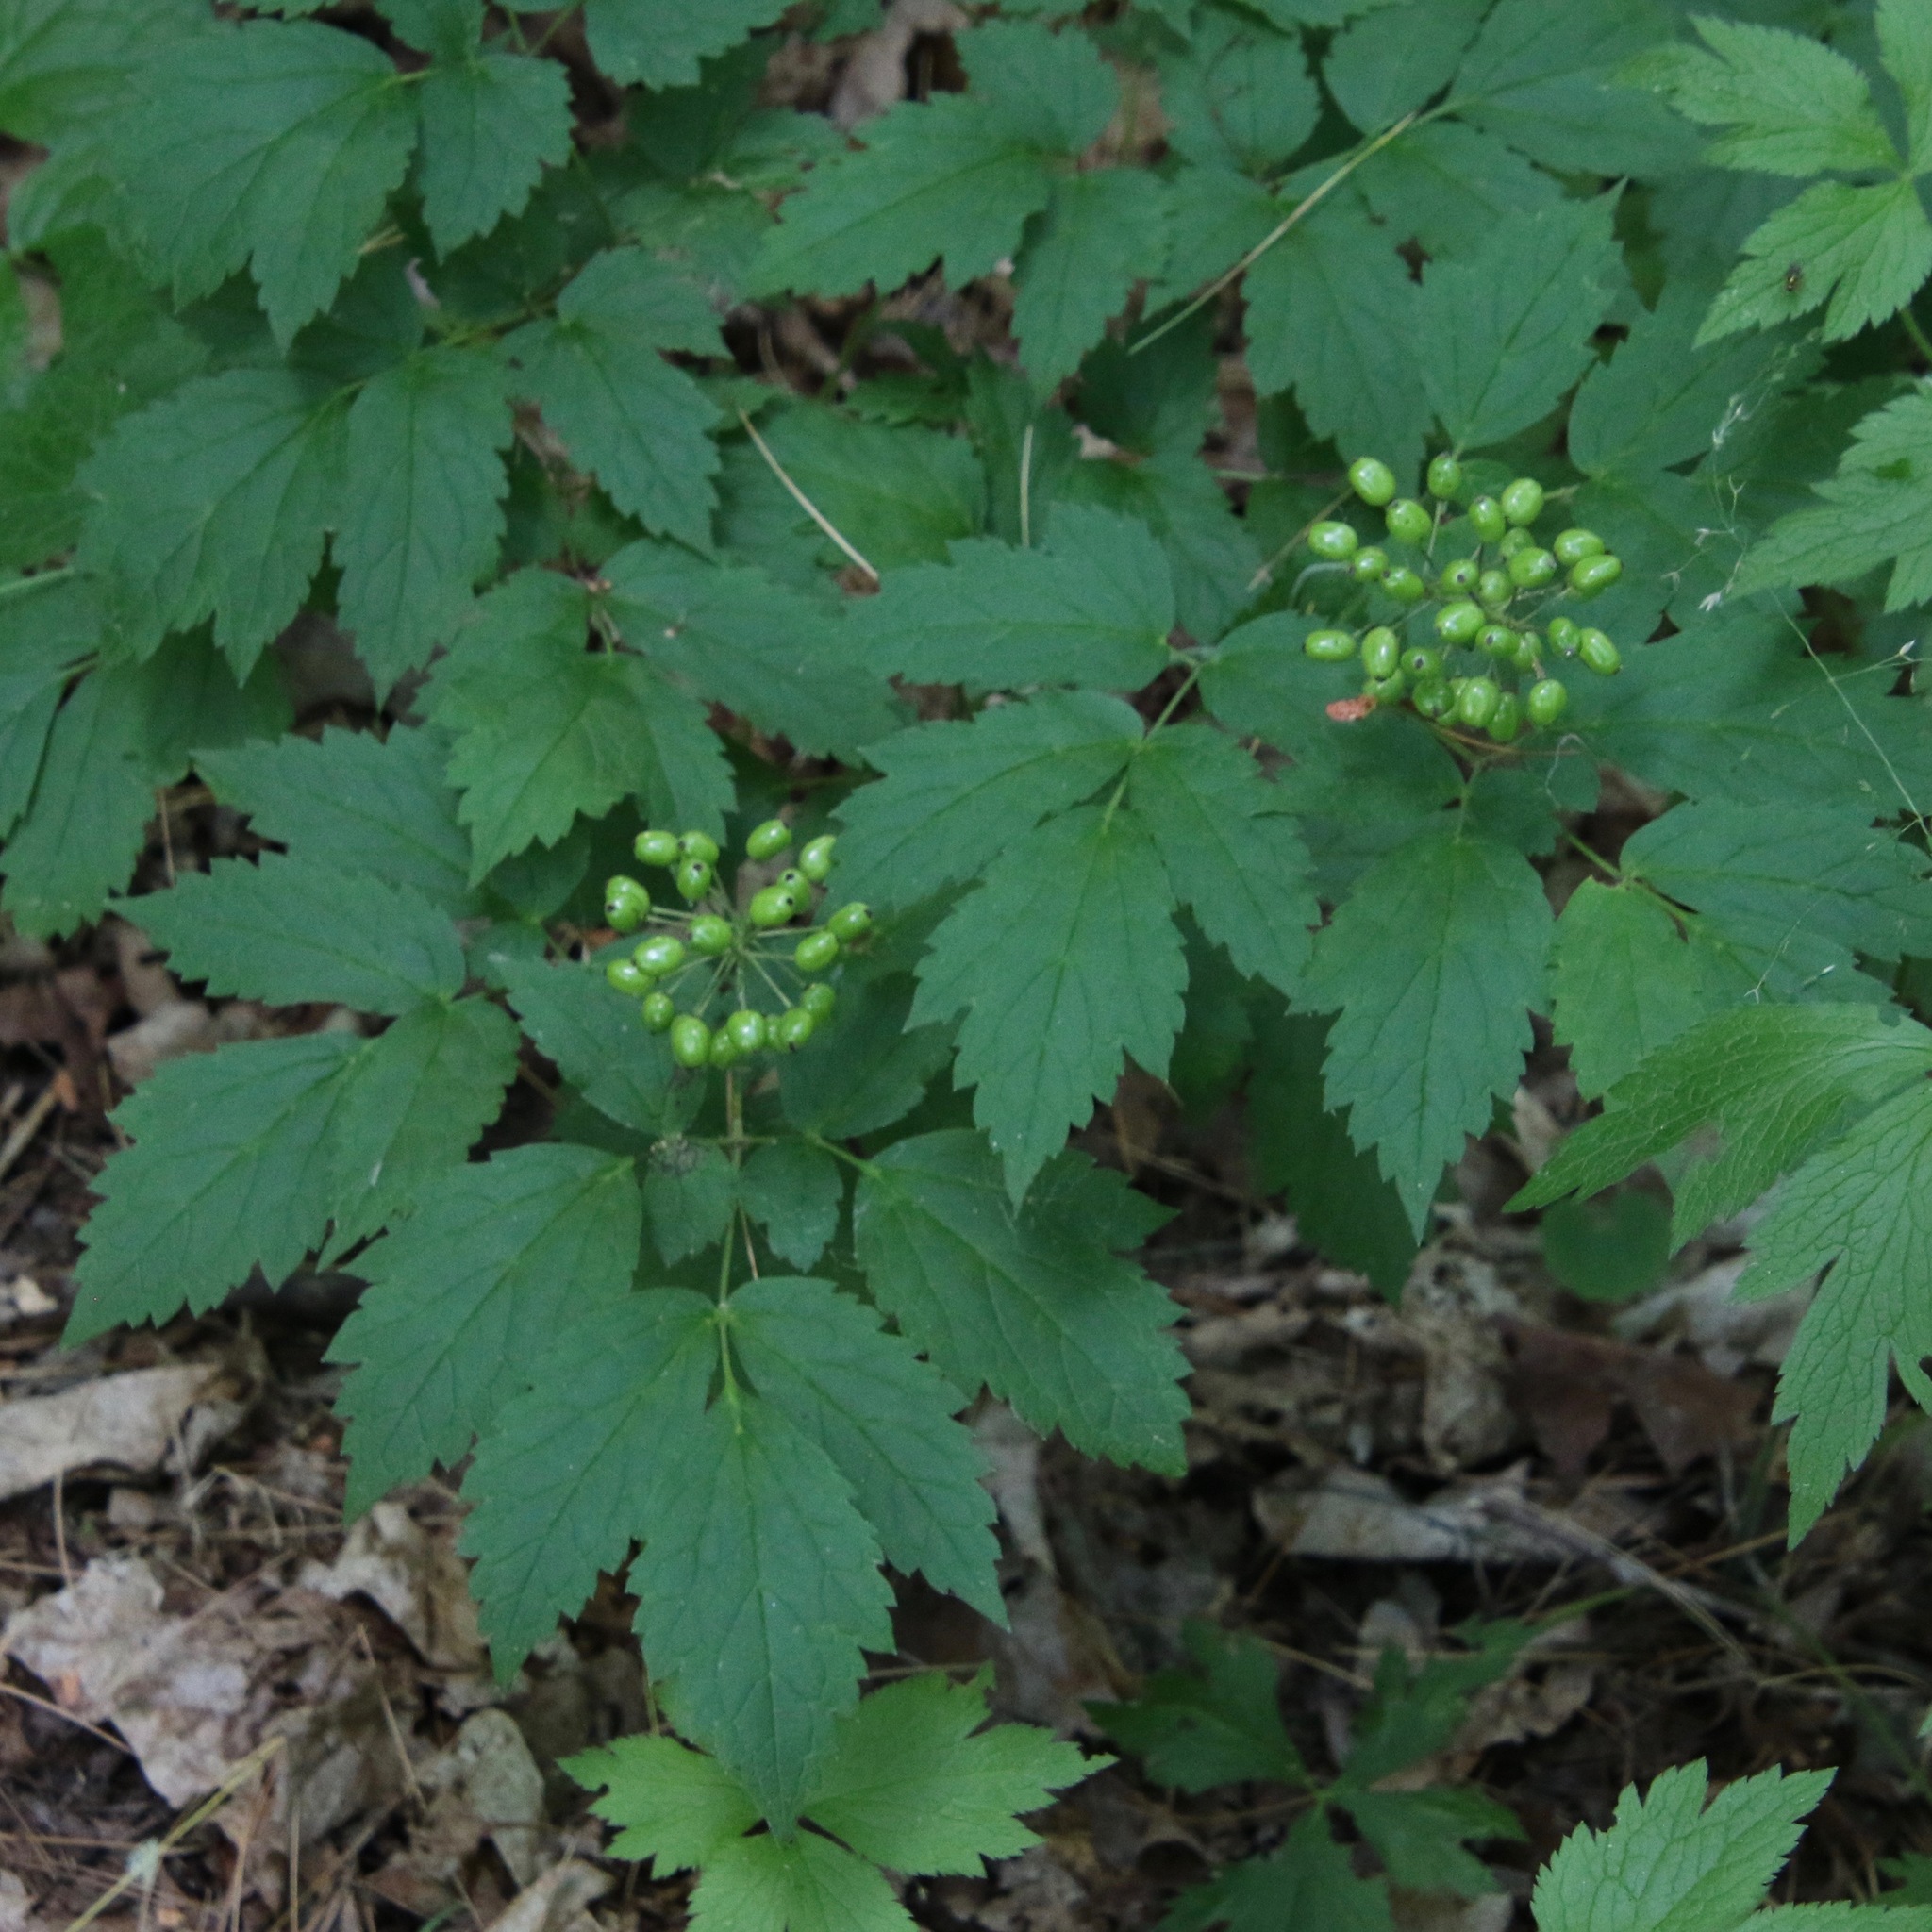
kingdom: Plantae
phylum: Tracheophyta
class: Magnoliopsida
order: Ranunculales
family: Ranunculaceae
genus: Actaea
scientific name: Actaea rubra
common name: Red baneberry
